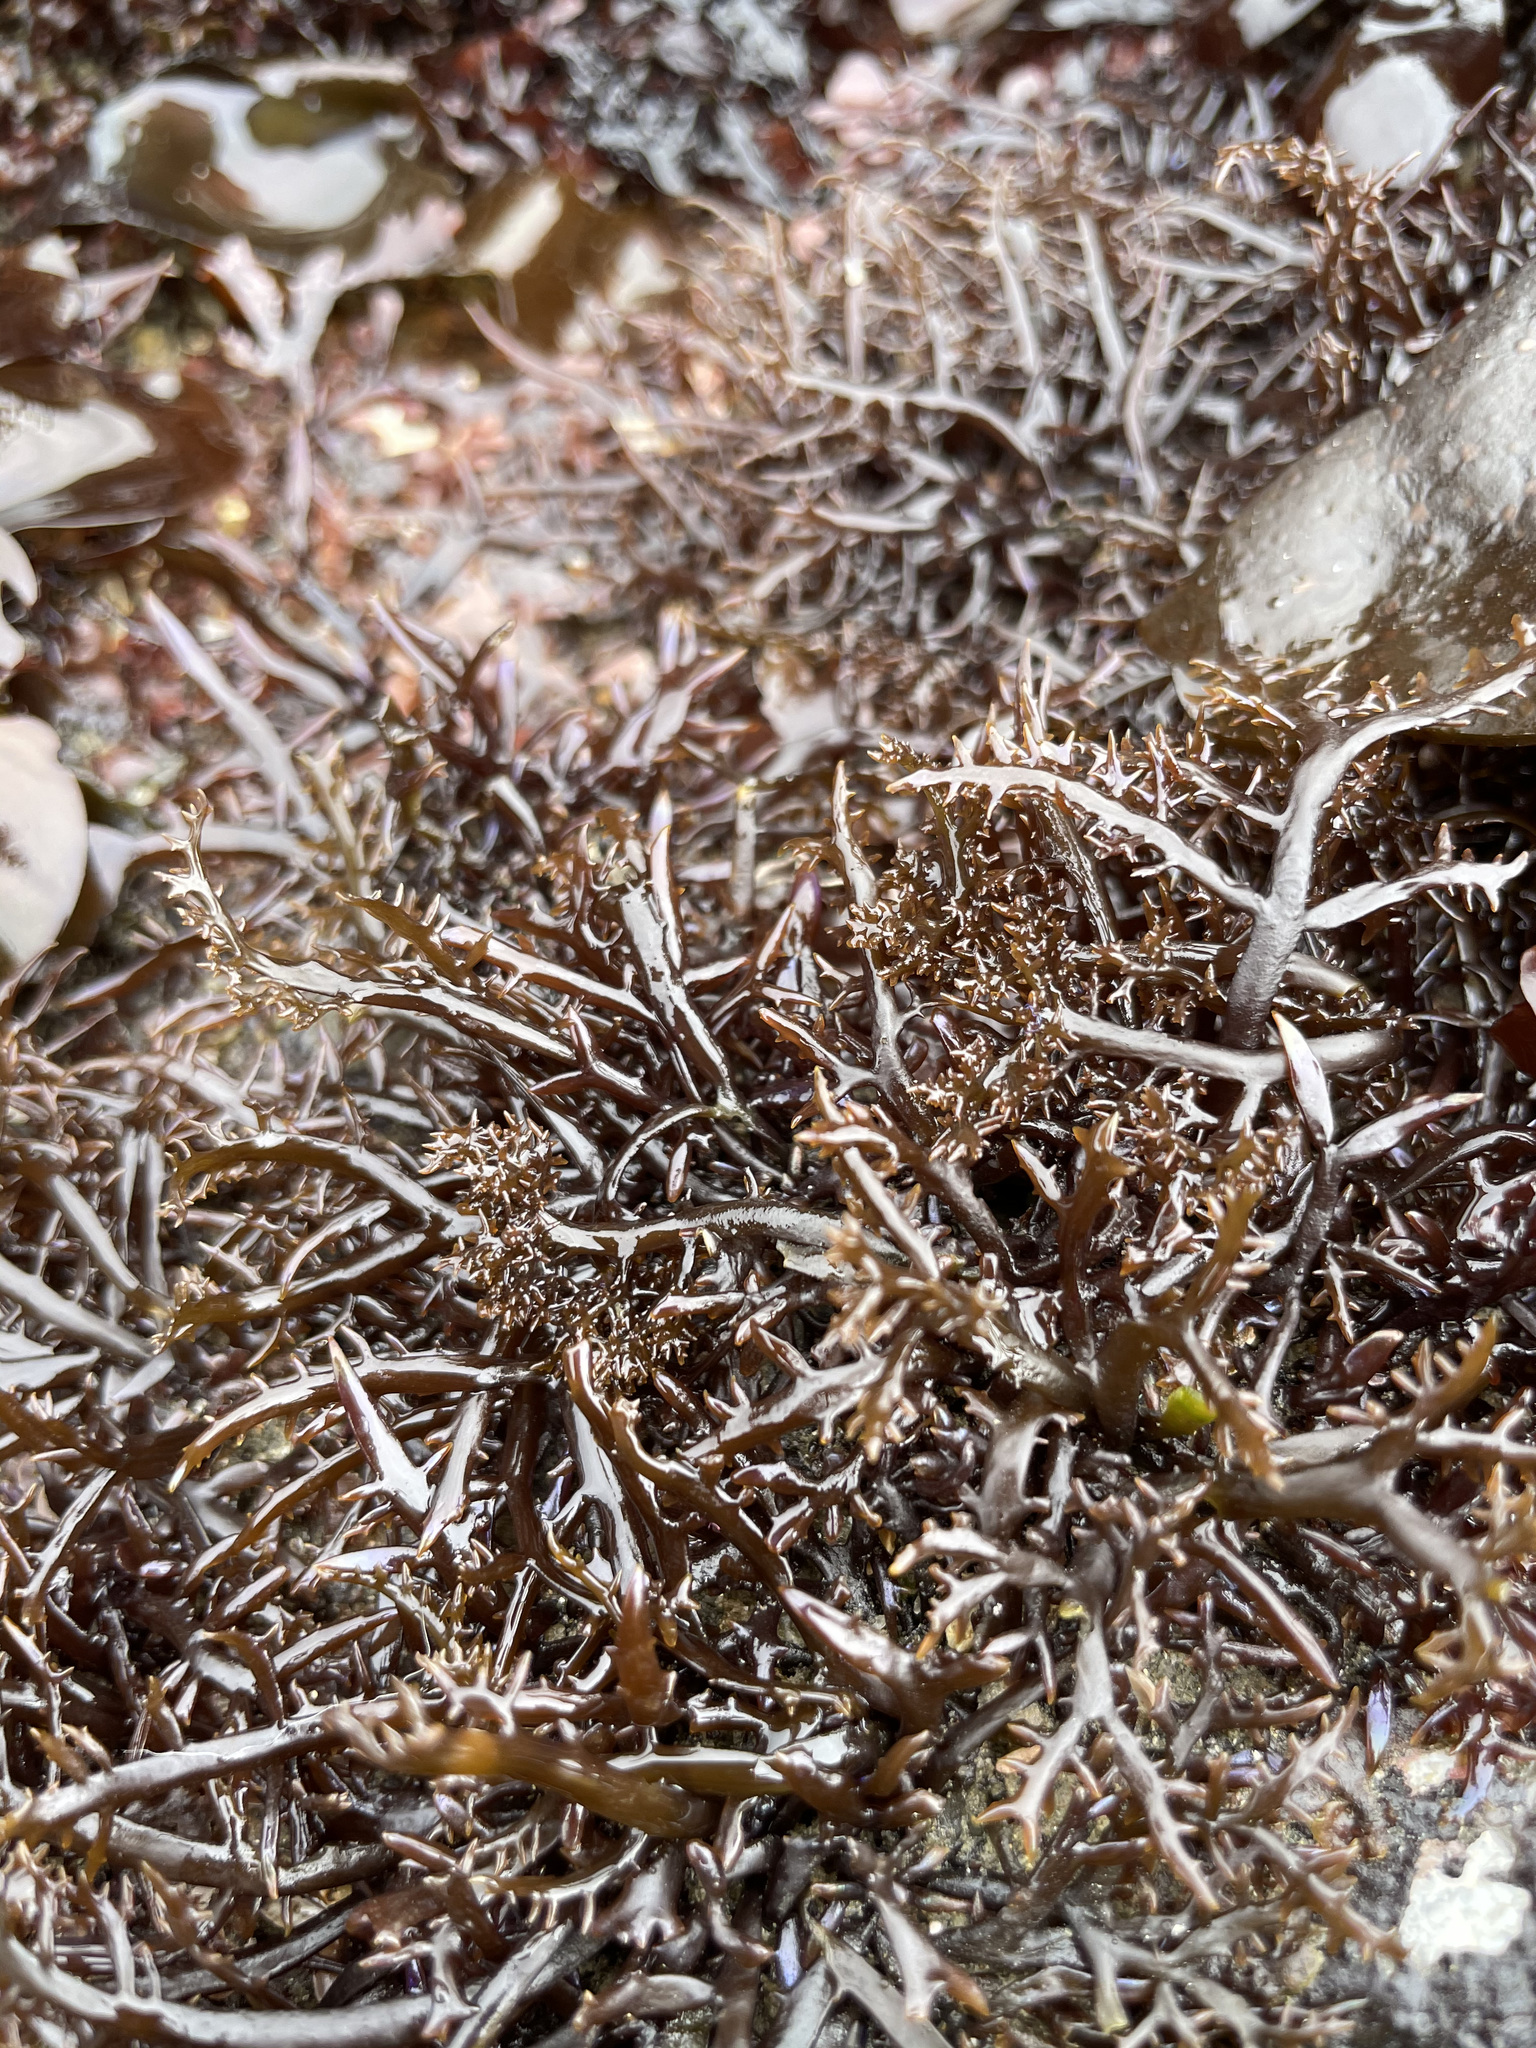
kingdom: Plantae
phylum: Rhodophyta
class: Florideophyceae
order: Gigartinales
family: Gigartinaceae
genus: Chondracanthus
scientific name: Chondracanthus canaliculatus
